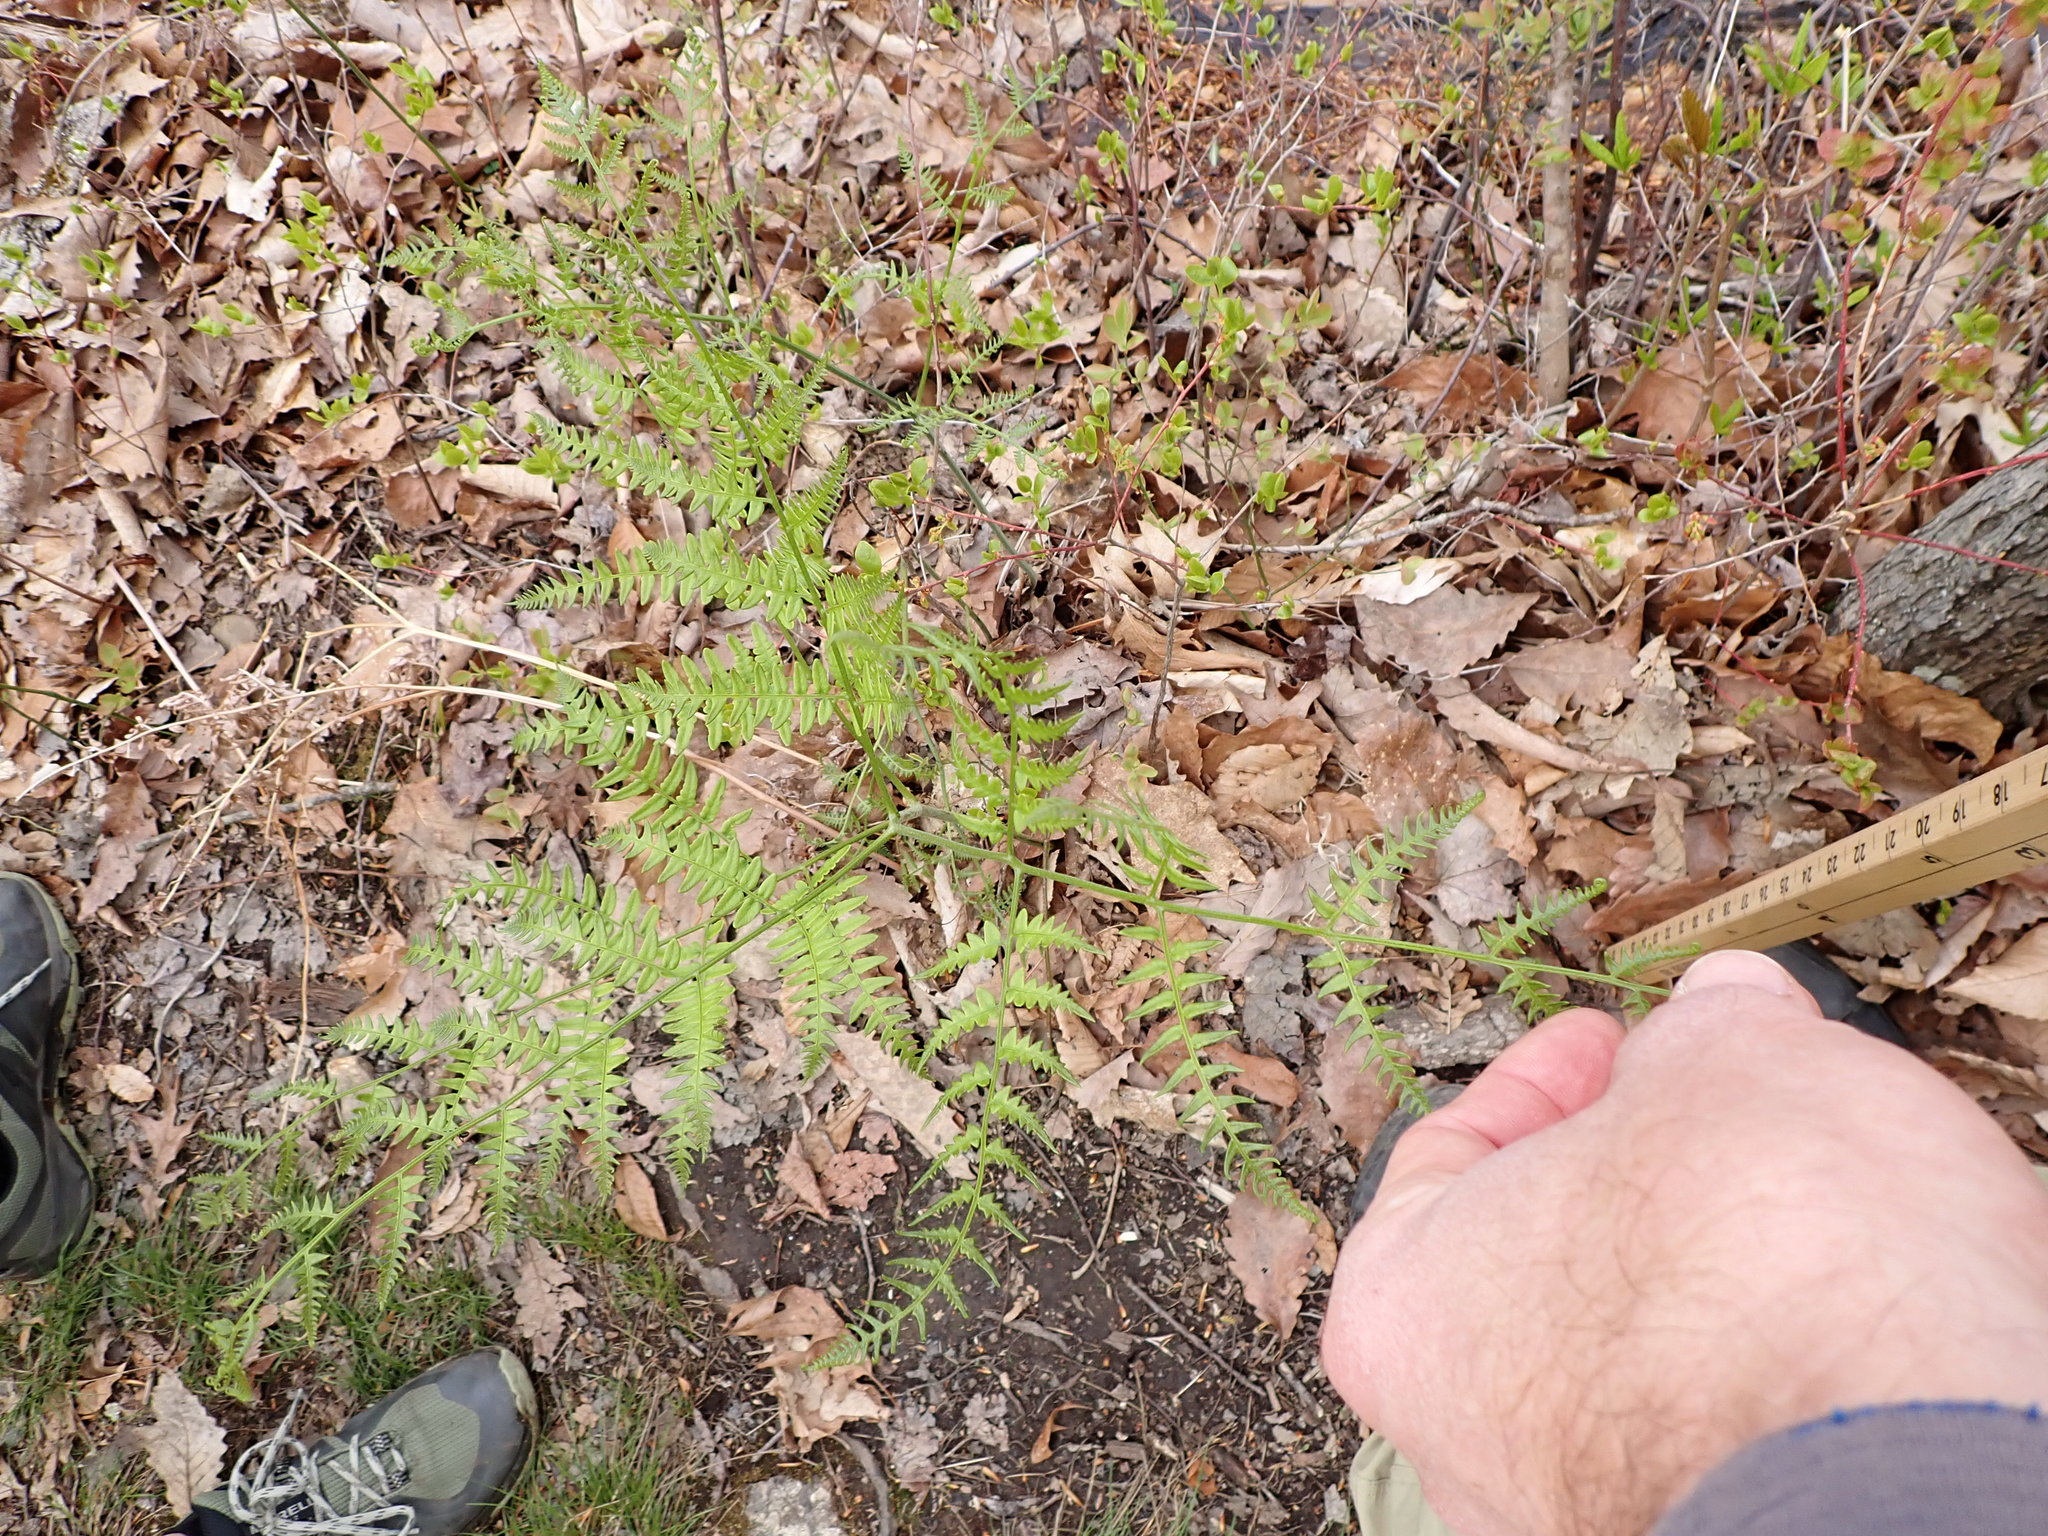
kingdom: Plantae
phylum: Tracheophyta
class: Polypodiopsida
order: Polypodiales
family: Dennstaedtiaceae
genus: Pteridium
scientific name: Pteridium aquilinum
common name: Bracken
